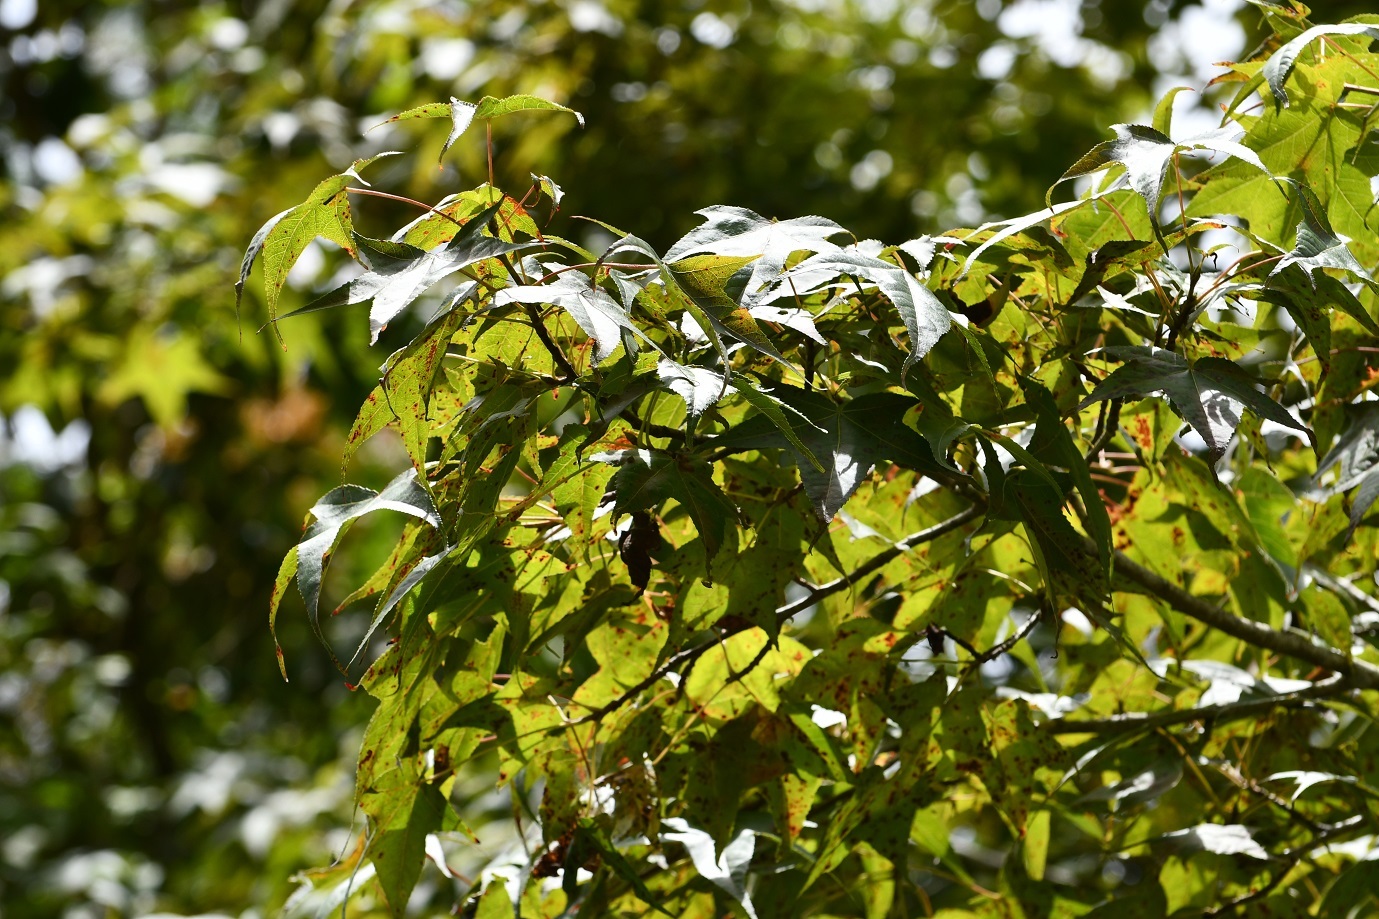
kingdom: Plantae
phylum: Tracheophyta
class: Magnoliopsida
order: Saxifragales
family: Altingiaceae
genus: Liquidambar
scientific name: Liquidambar styraciflua
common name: Sweet gum
